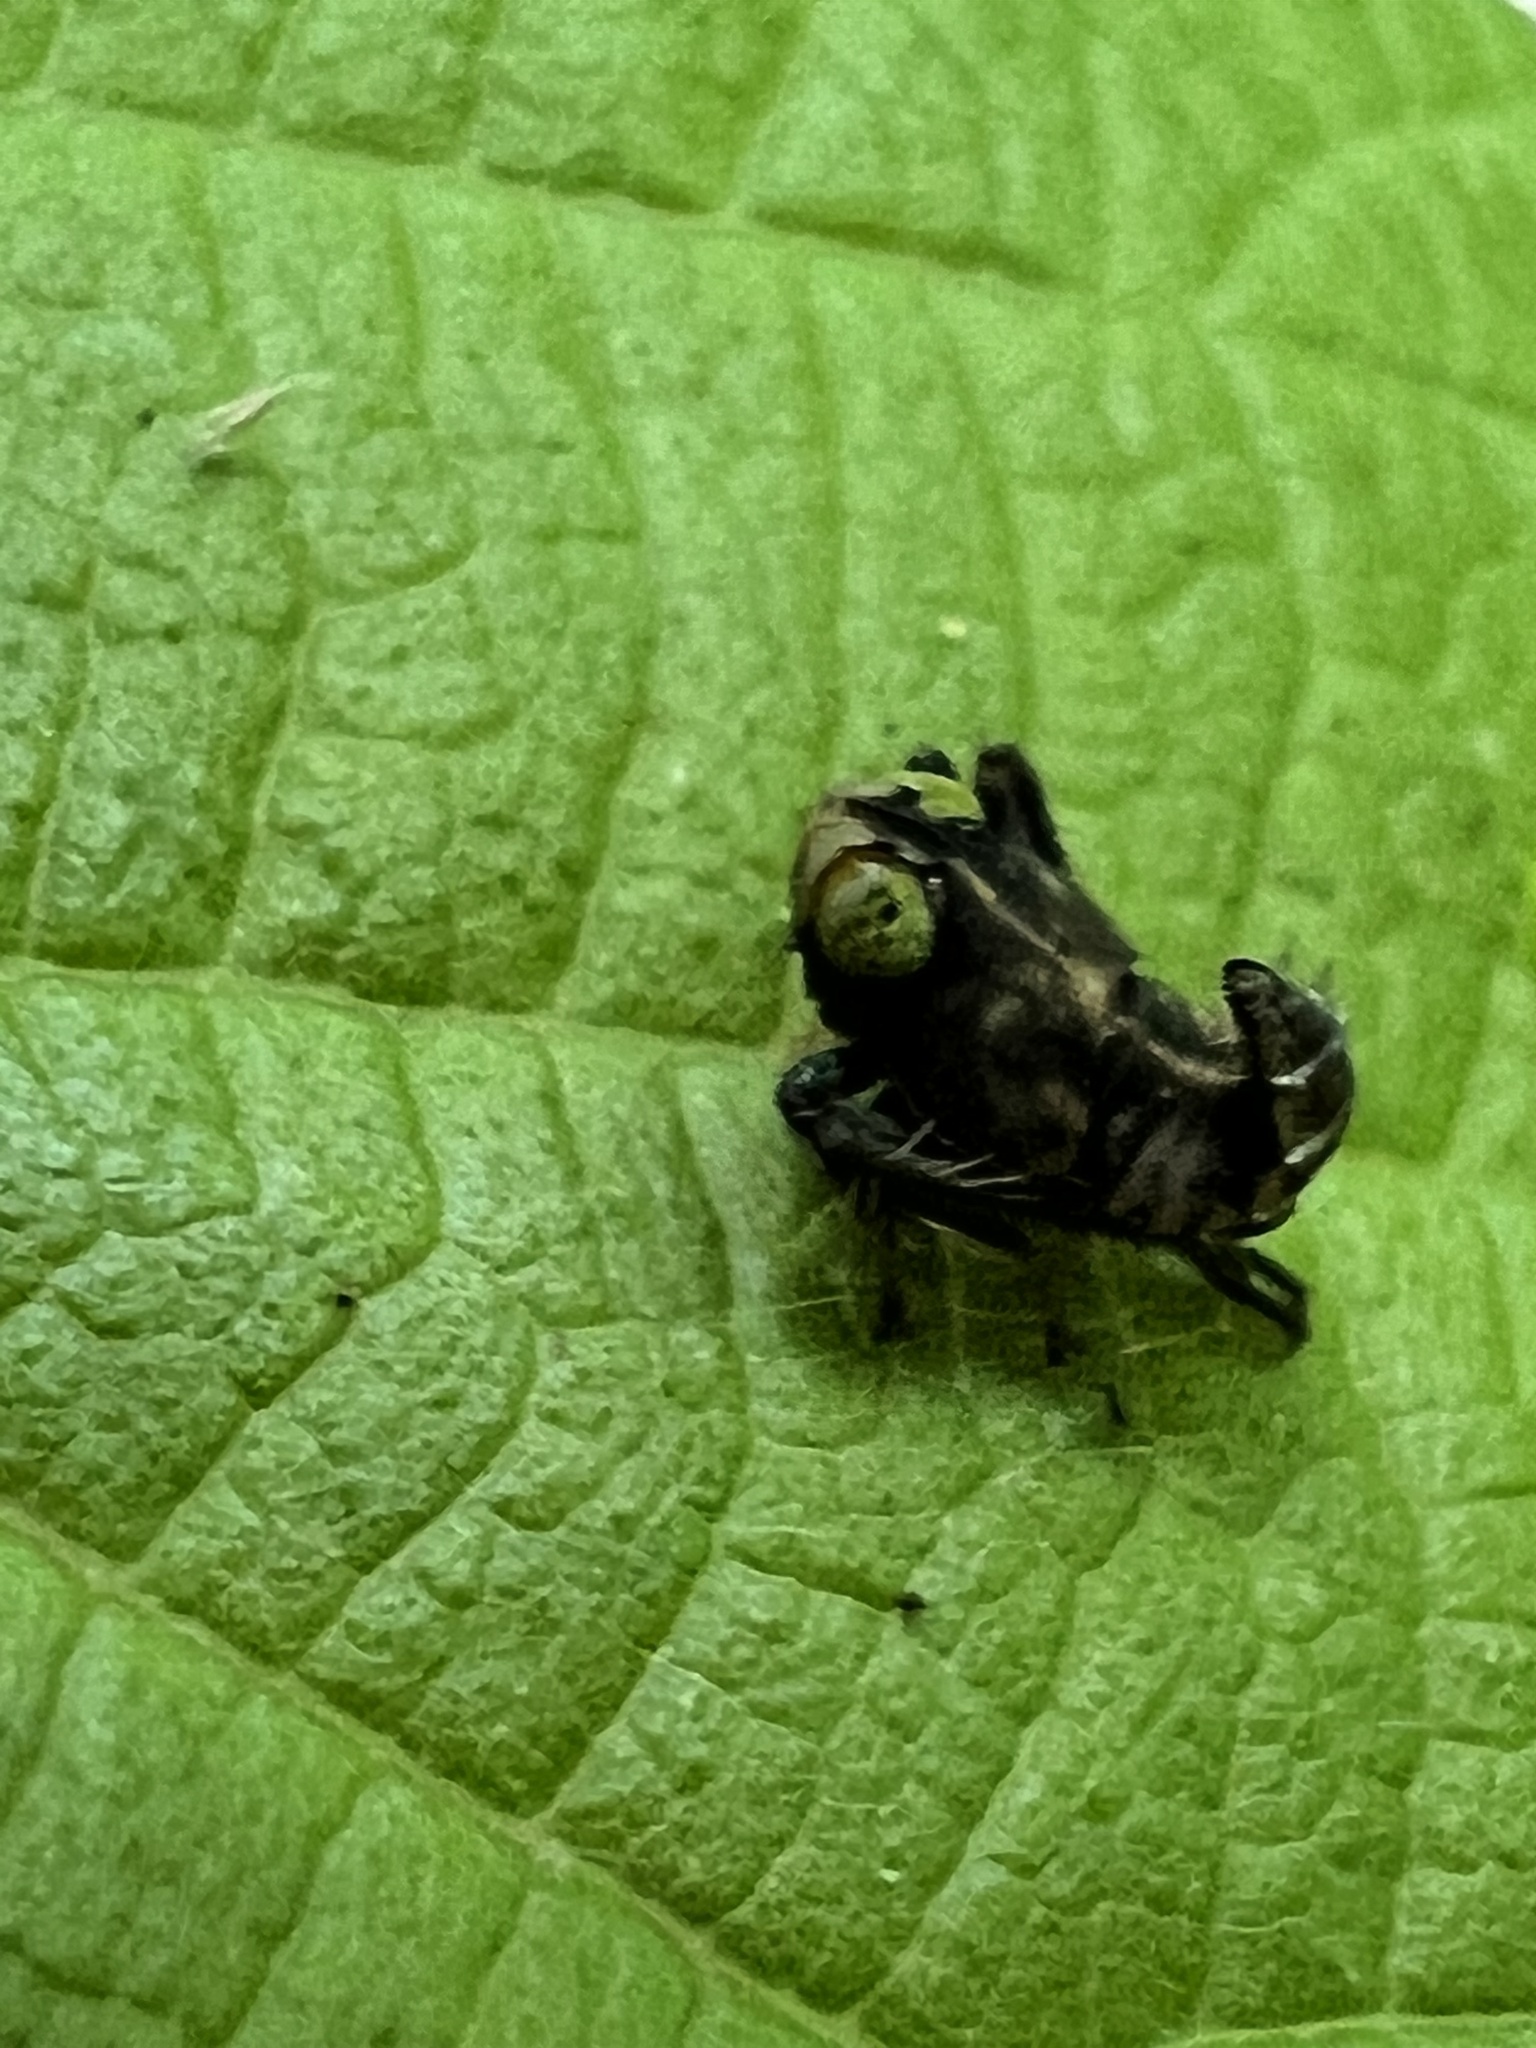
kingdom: Animalia
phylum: Arthropoda
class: Insecta
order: Hemiptera
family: Cicadellidae
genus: Jikradia
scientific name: Jikradia olitoria
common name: Coppery leafhopper
